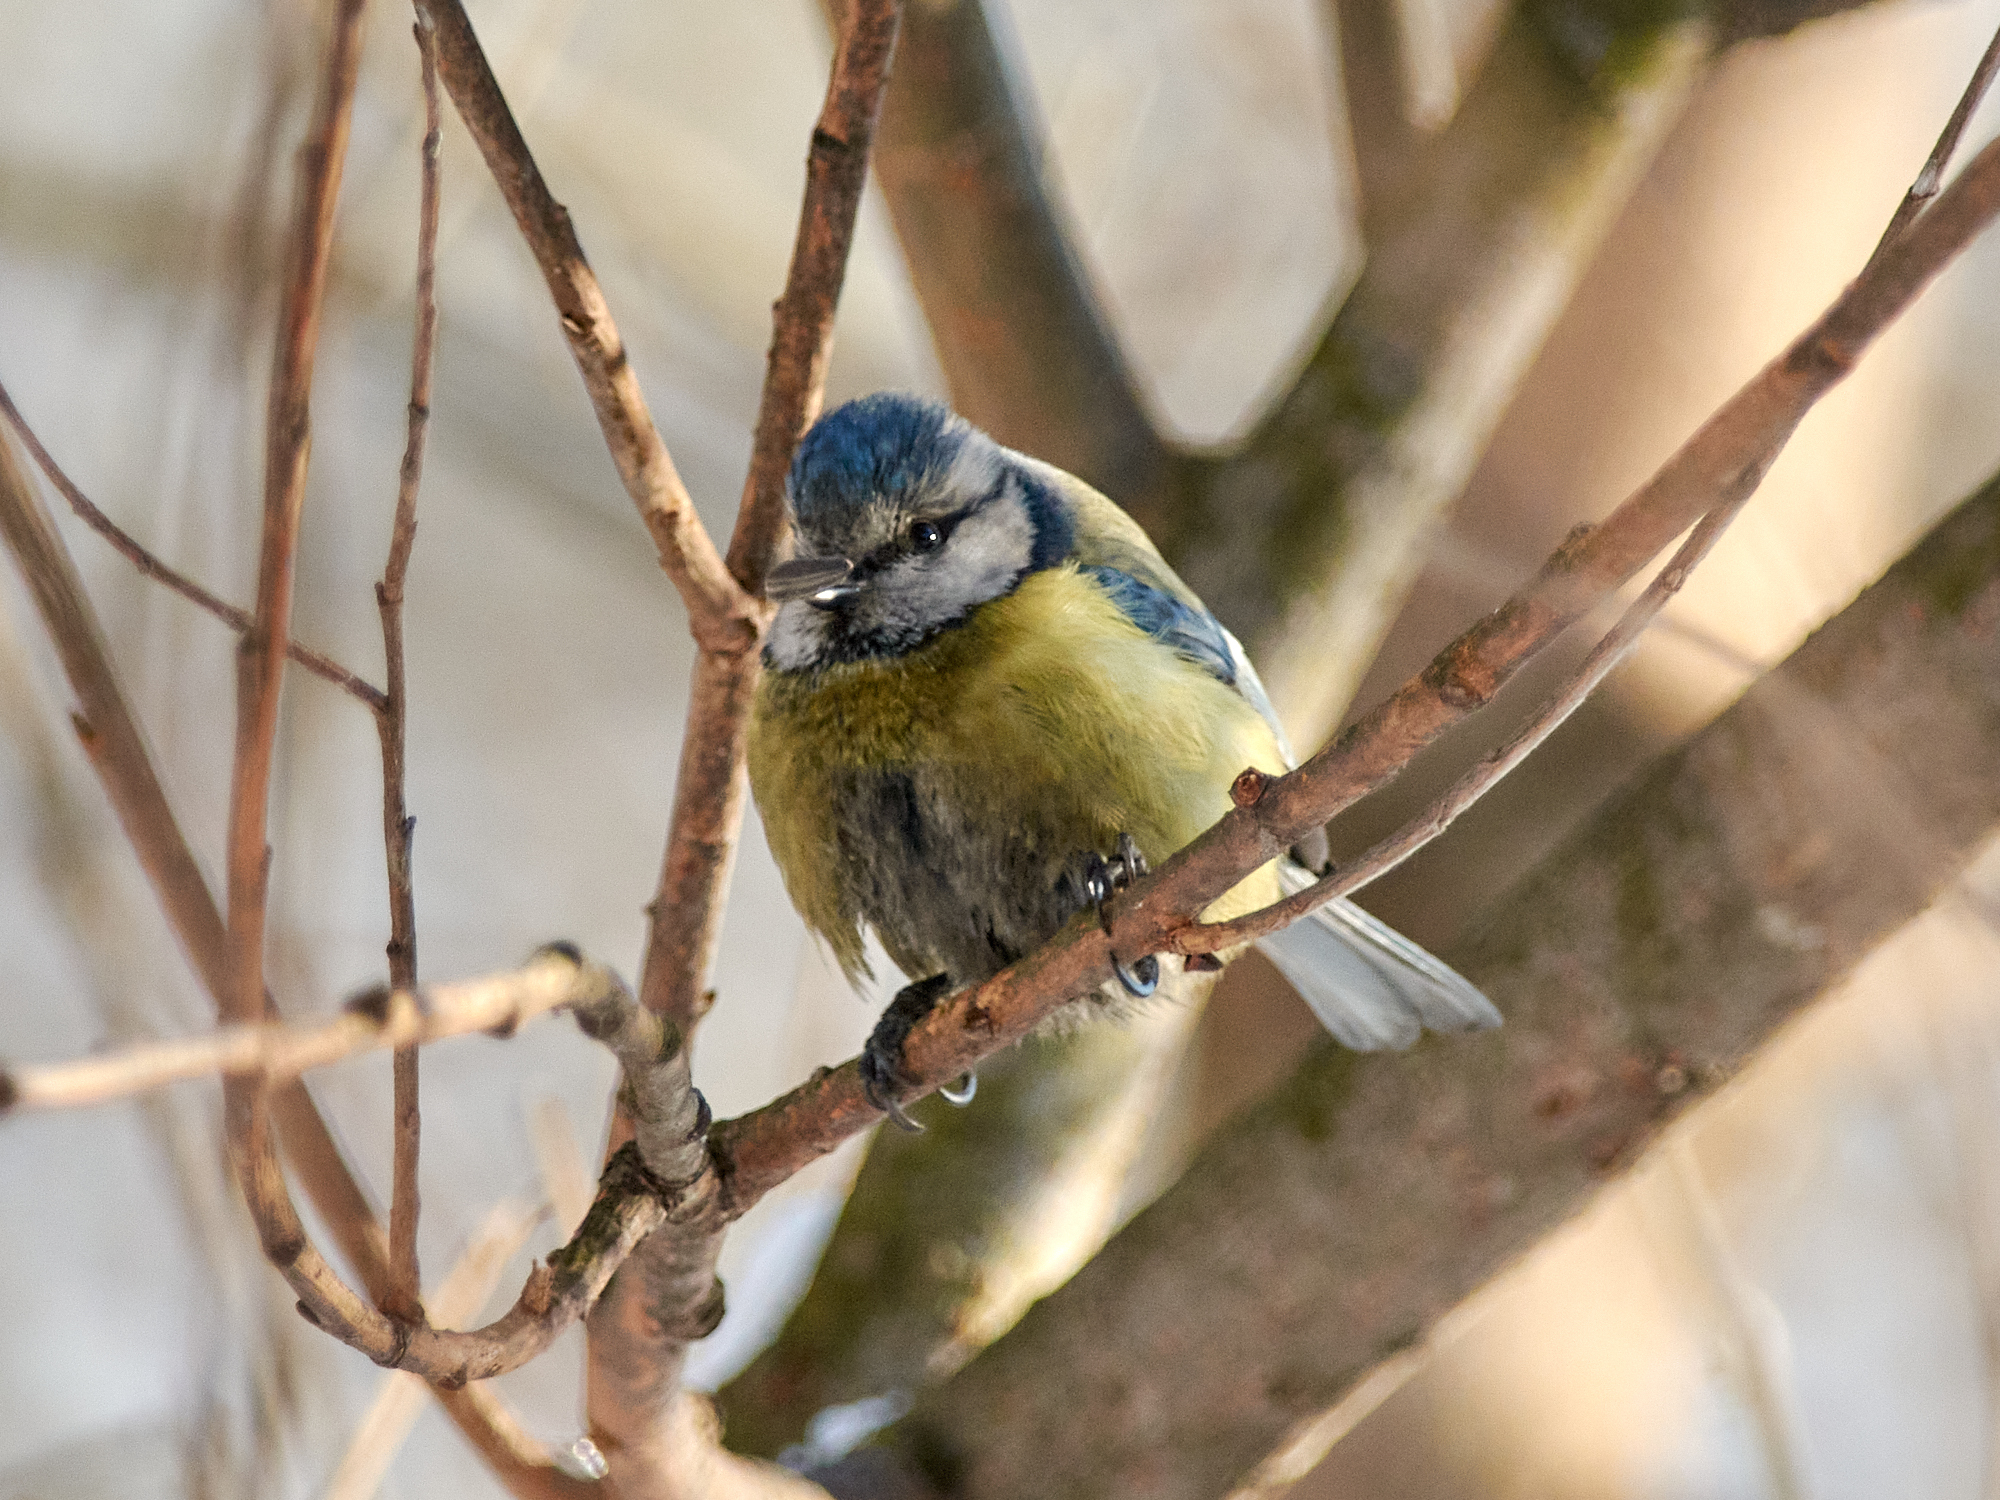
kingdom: Animalia
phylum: Chordata
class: Aves
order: Passeriformes
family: Paridae
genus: Cyanistes
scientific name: Cyanistes caeruleus
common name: Eurasian blue tit
